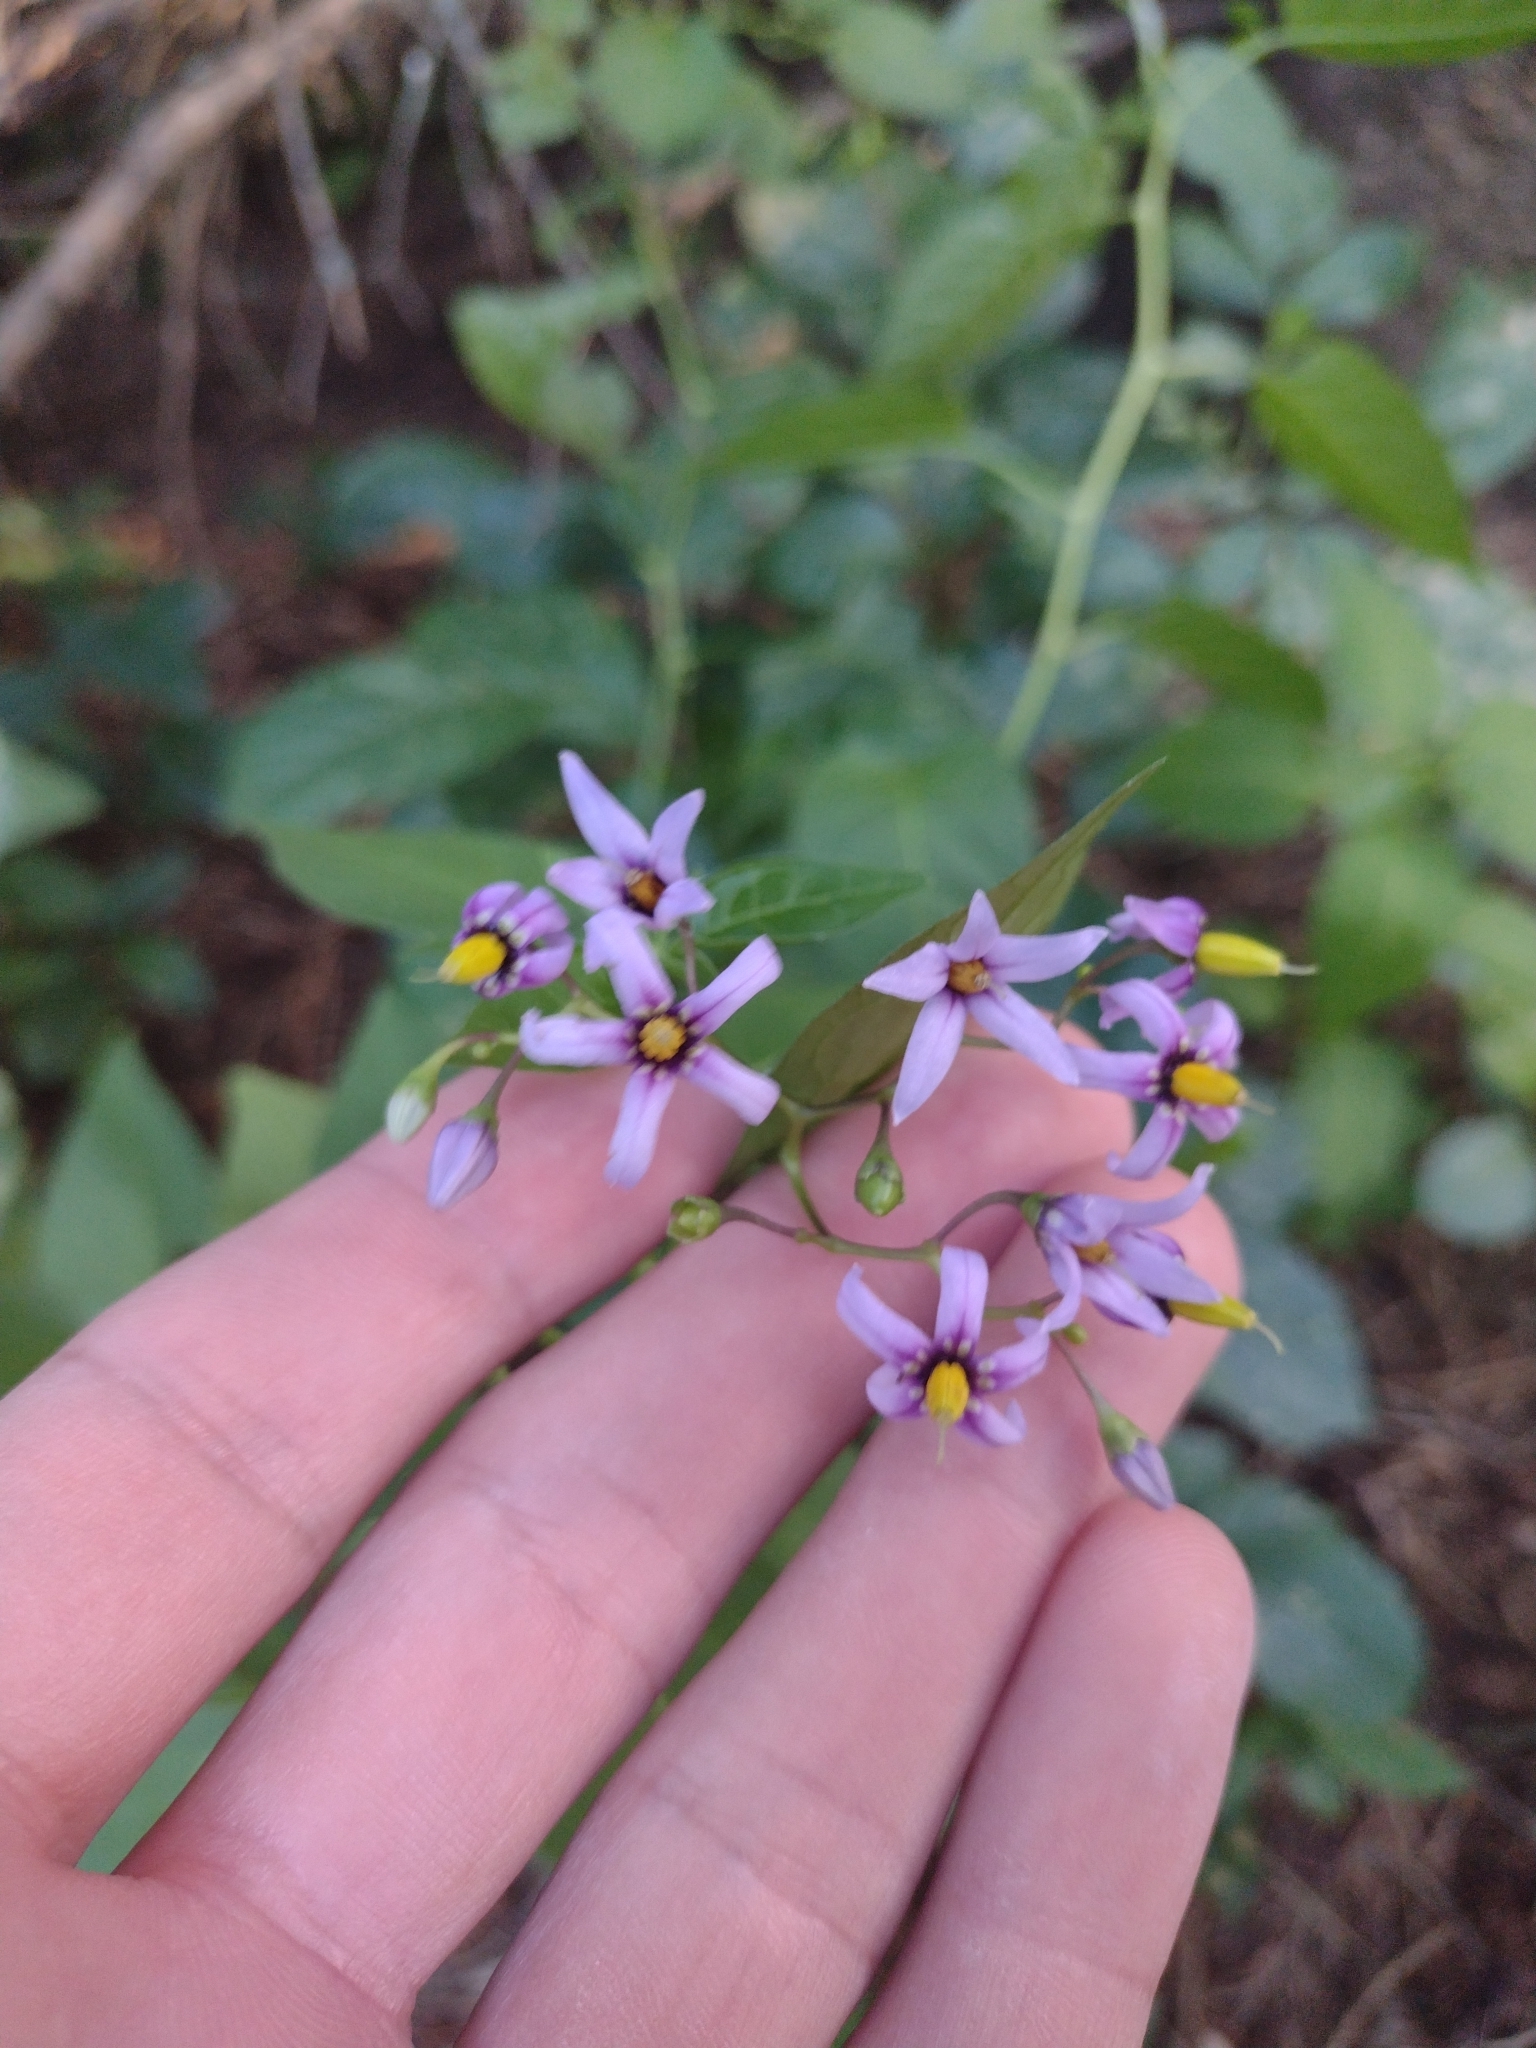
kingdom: Plantae
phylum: Tracheophyta
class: Magnoliopsida
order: Solanales
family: Solanaceae
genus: Solanum
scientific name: Solanum dulcamara
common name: Climbing nightshade
